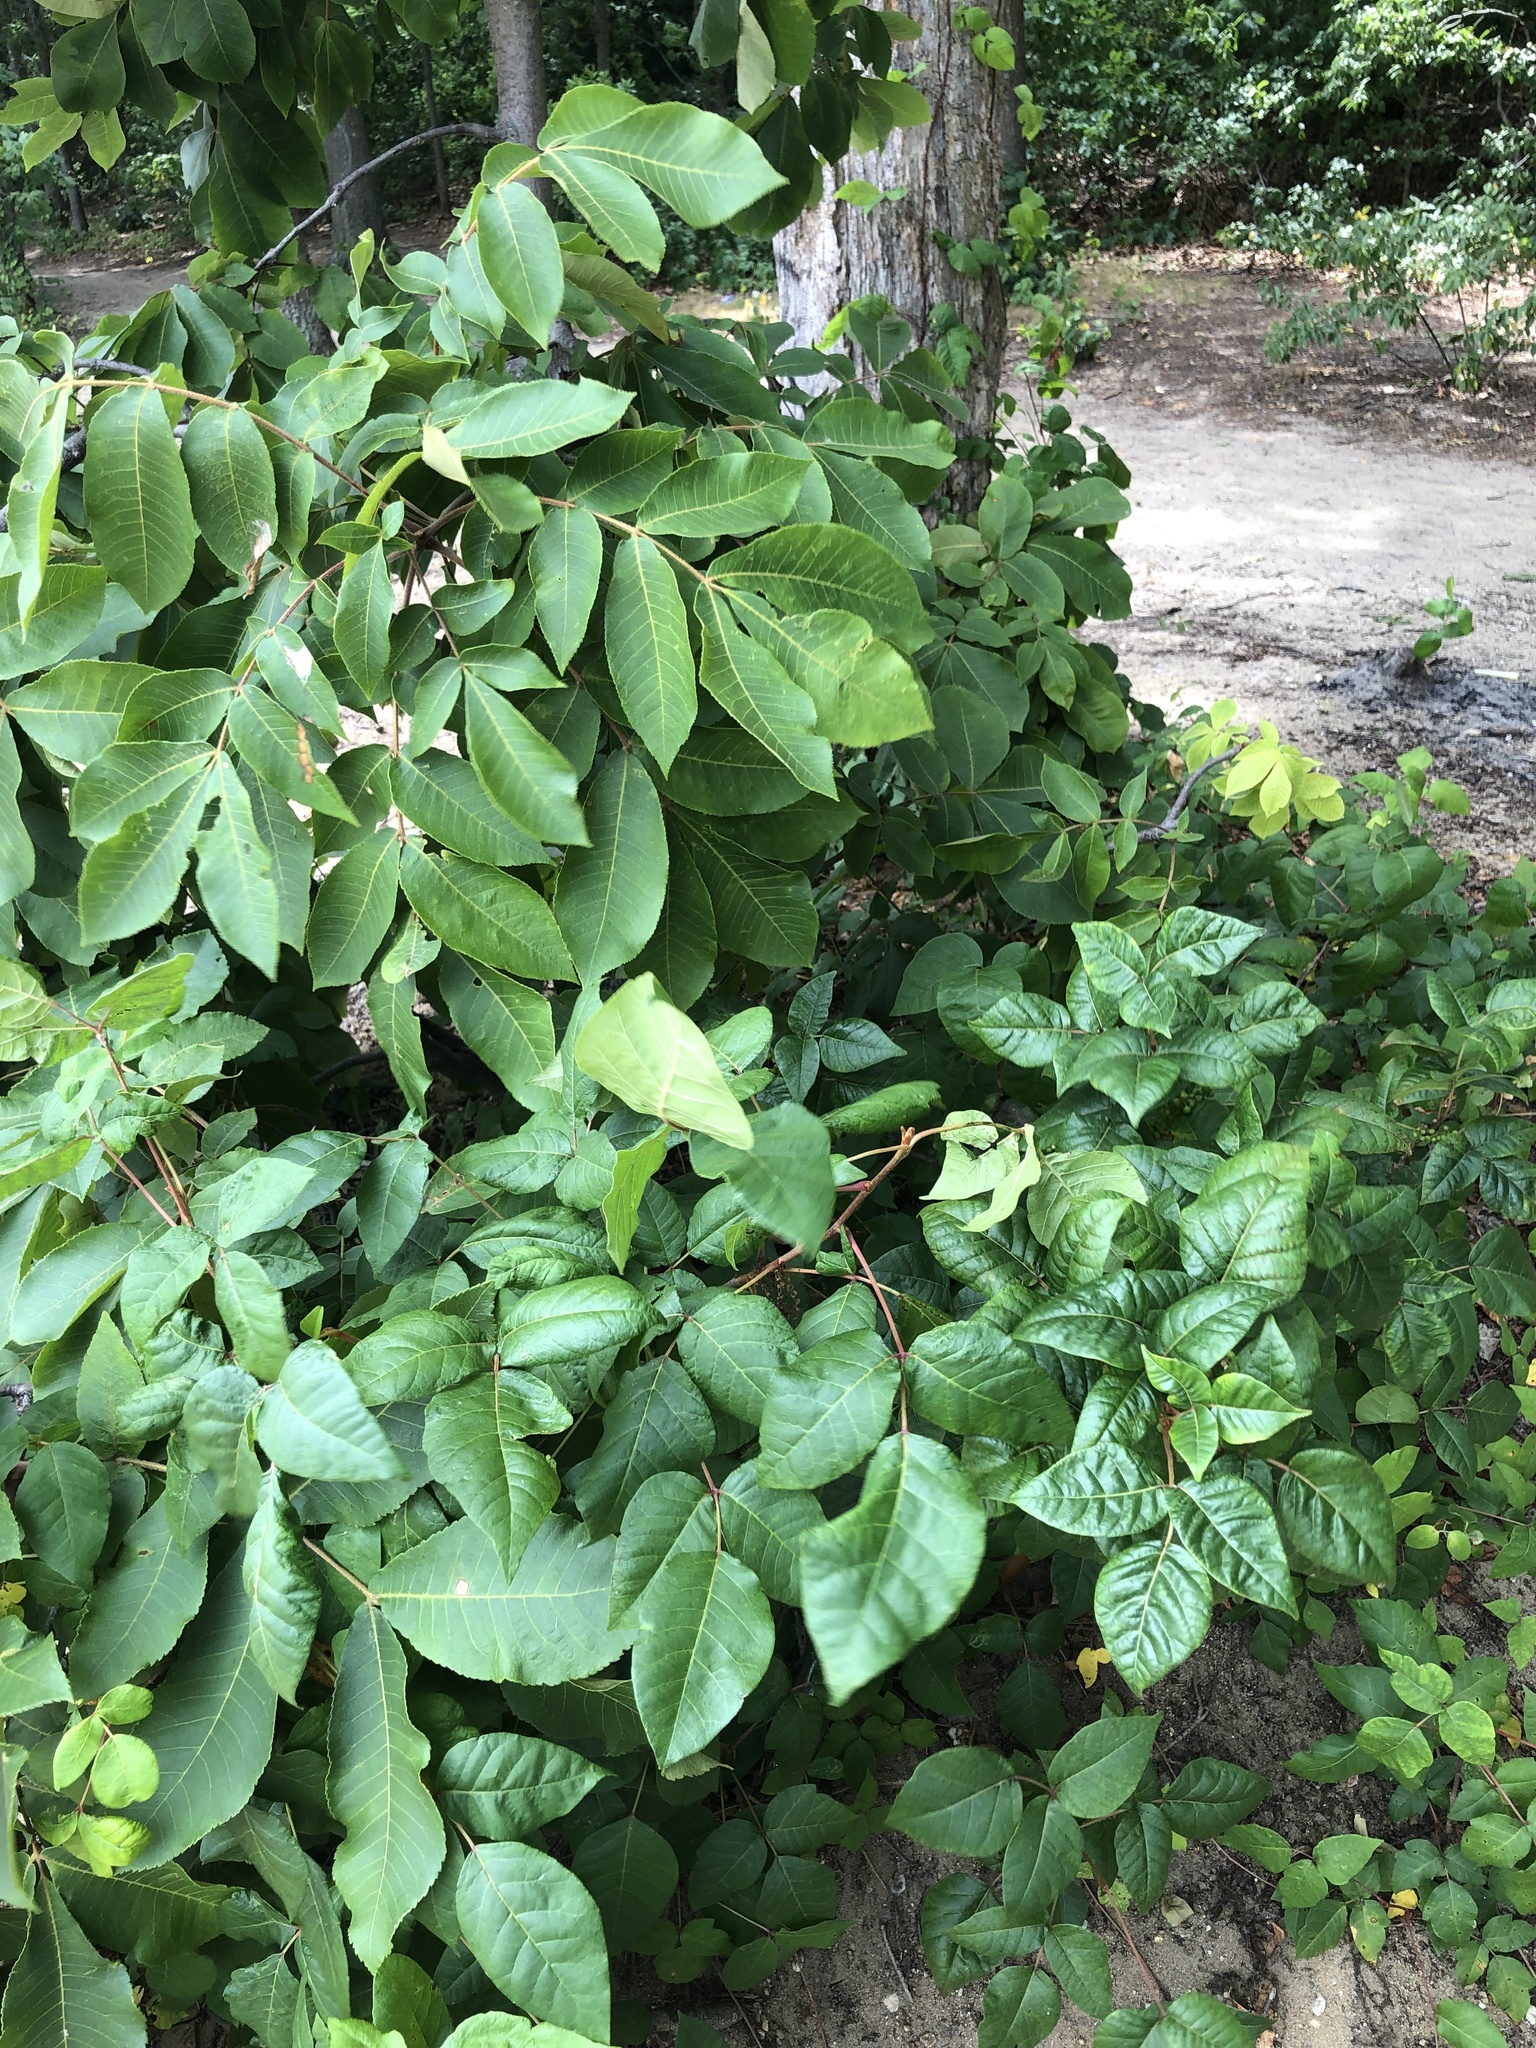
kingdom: Plantae
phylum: Tracheophyta
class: Magnoliopsida
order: Sapindales
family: Anacardiaceae
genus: Toxicodendron
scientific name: Toxicodendron radicans
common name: Poison ivy
